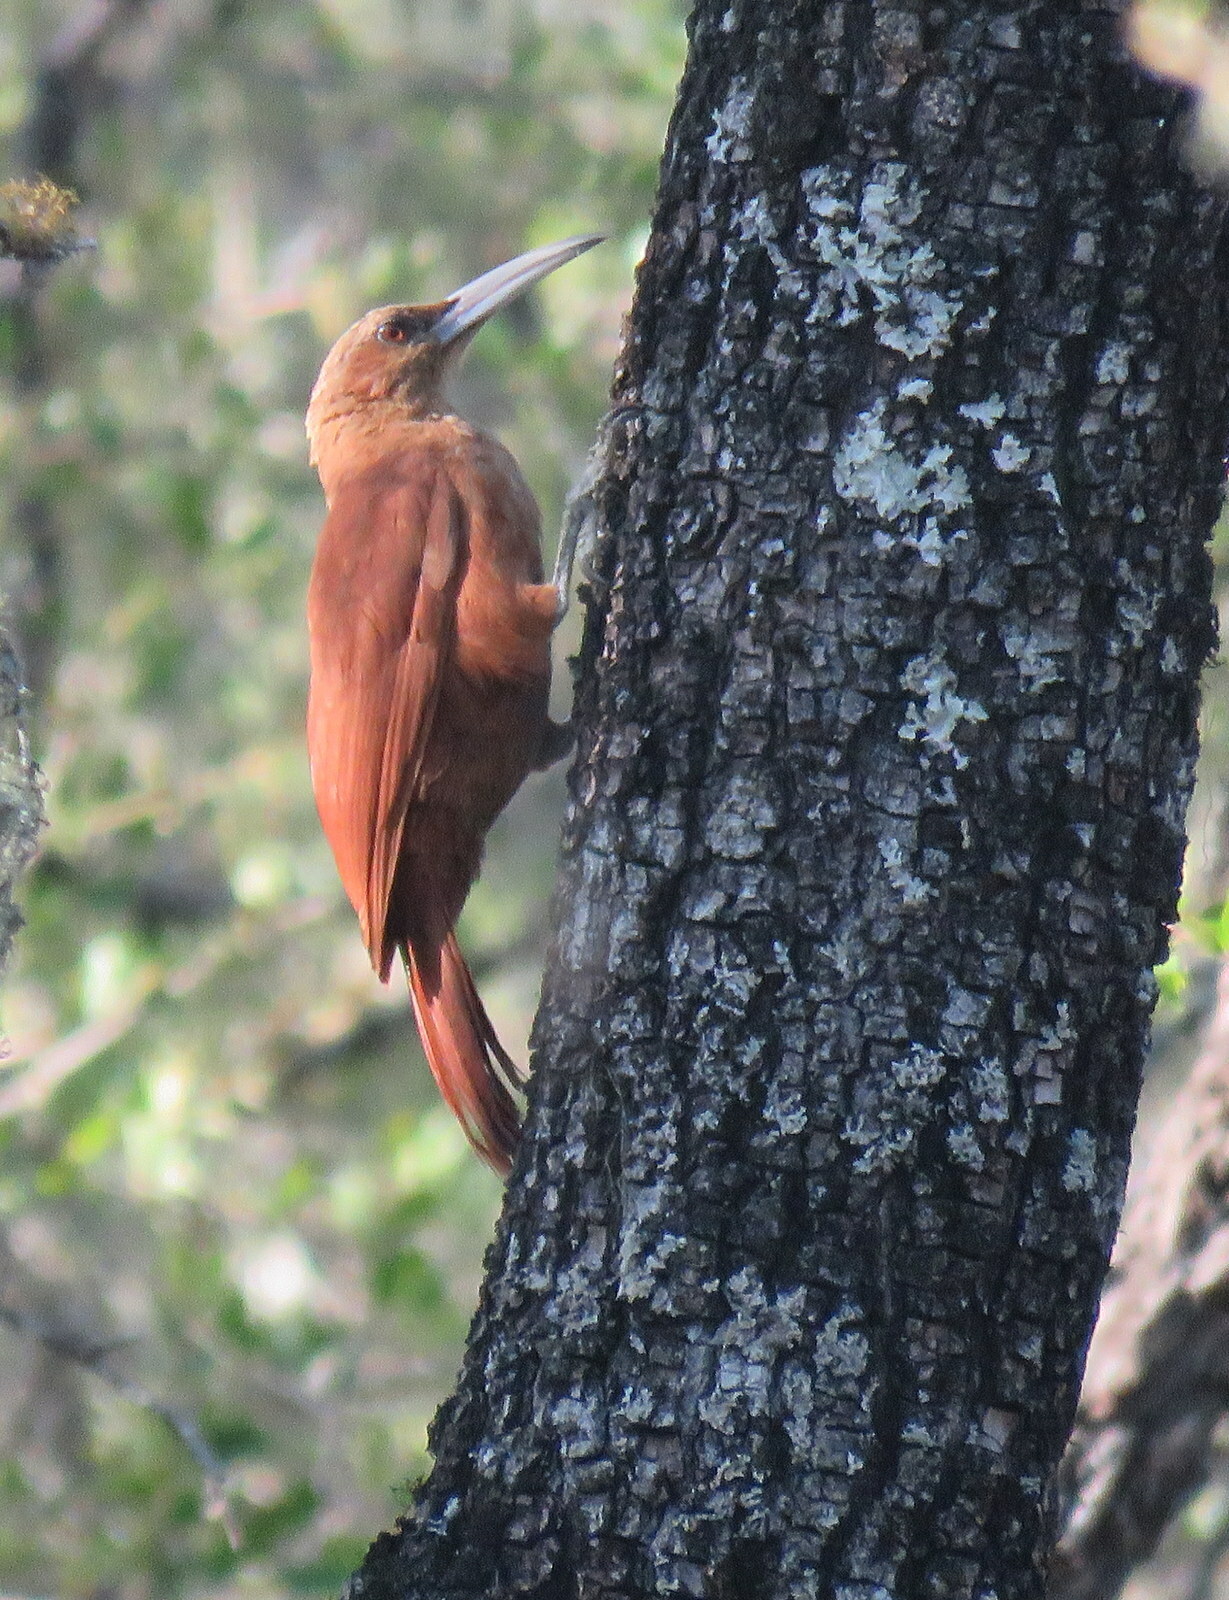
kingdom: Animalia
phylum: Chordata
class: Aves
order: Passeriformes
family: Furnariidae
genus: Xiphocolaptes
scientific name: Xiphocolaptes major
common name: Great rufous woodcreeper
